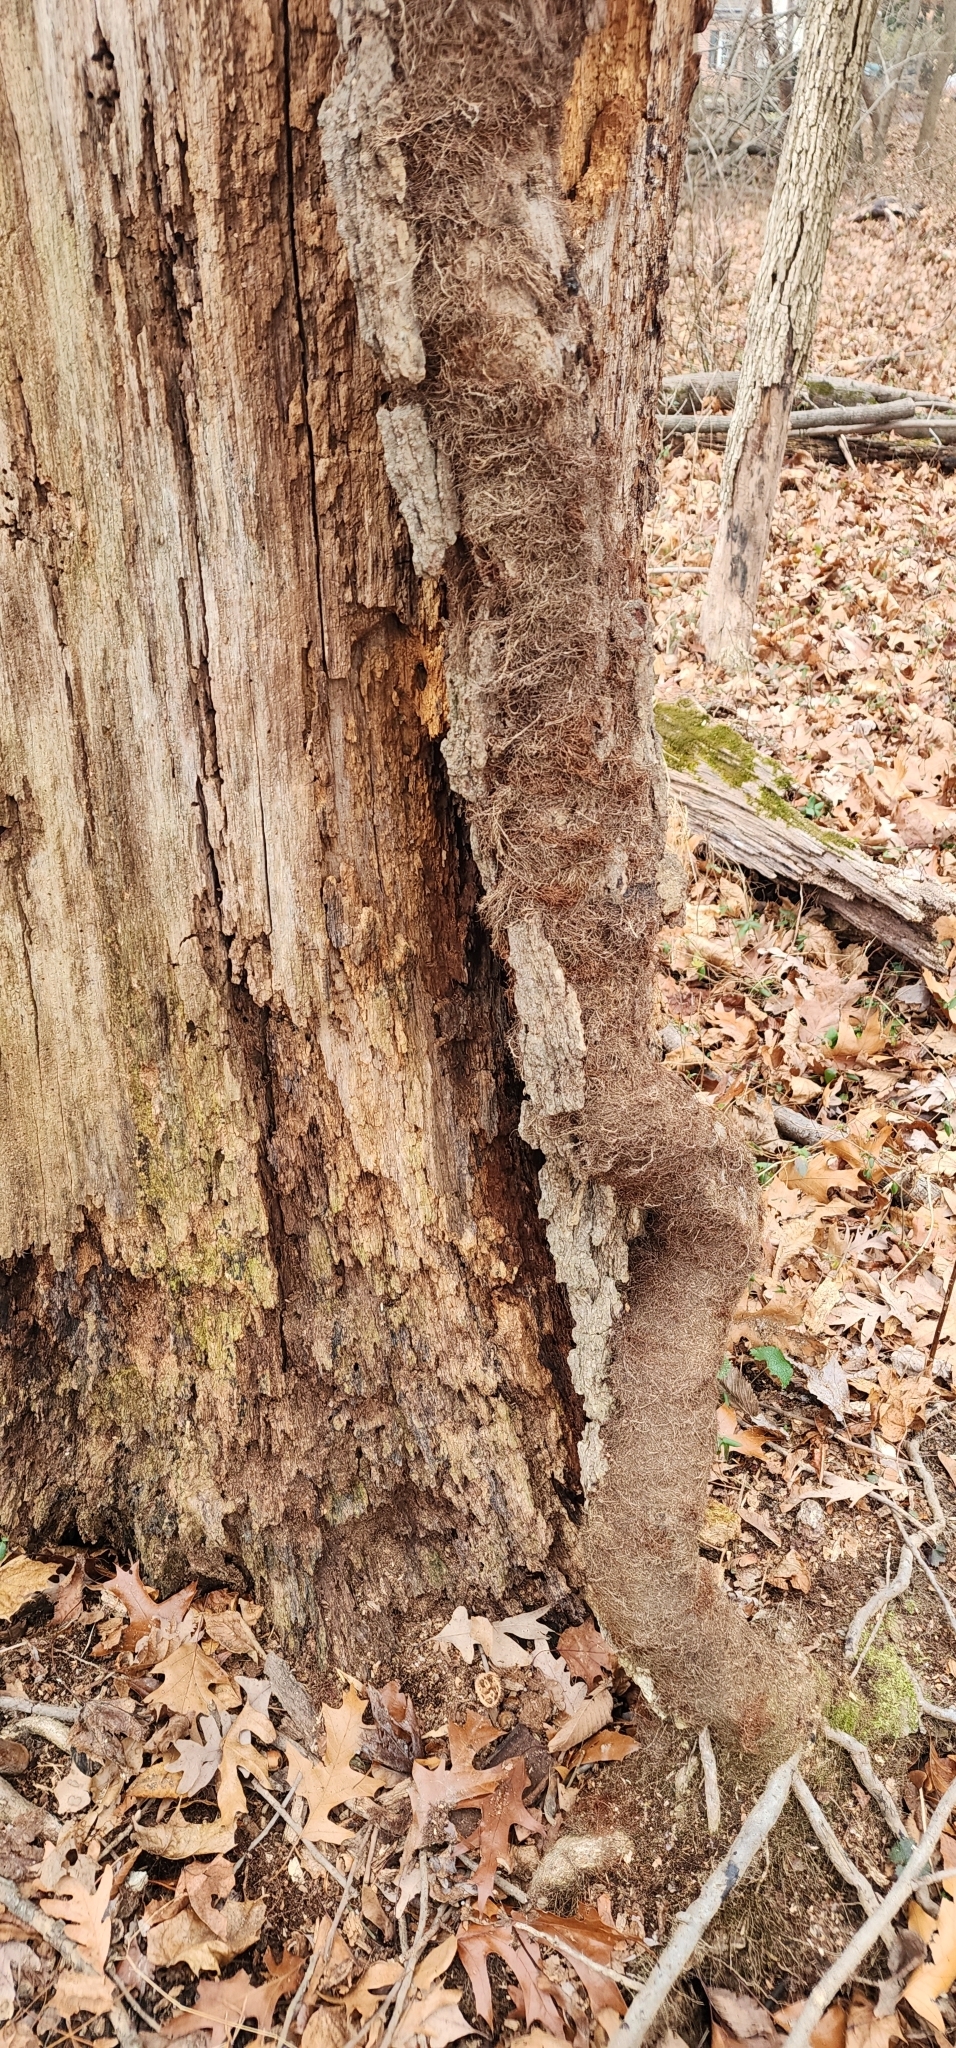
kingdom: Plantae
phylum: Tracheophyta
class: Magnoliopsida
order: Sapindales
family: Anacardiaceae
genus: Toxicodendron
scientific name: Toxicodendron radicans
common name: Poison ivy
